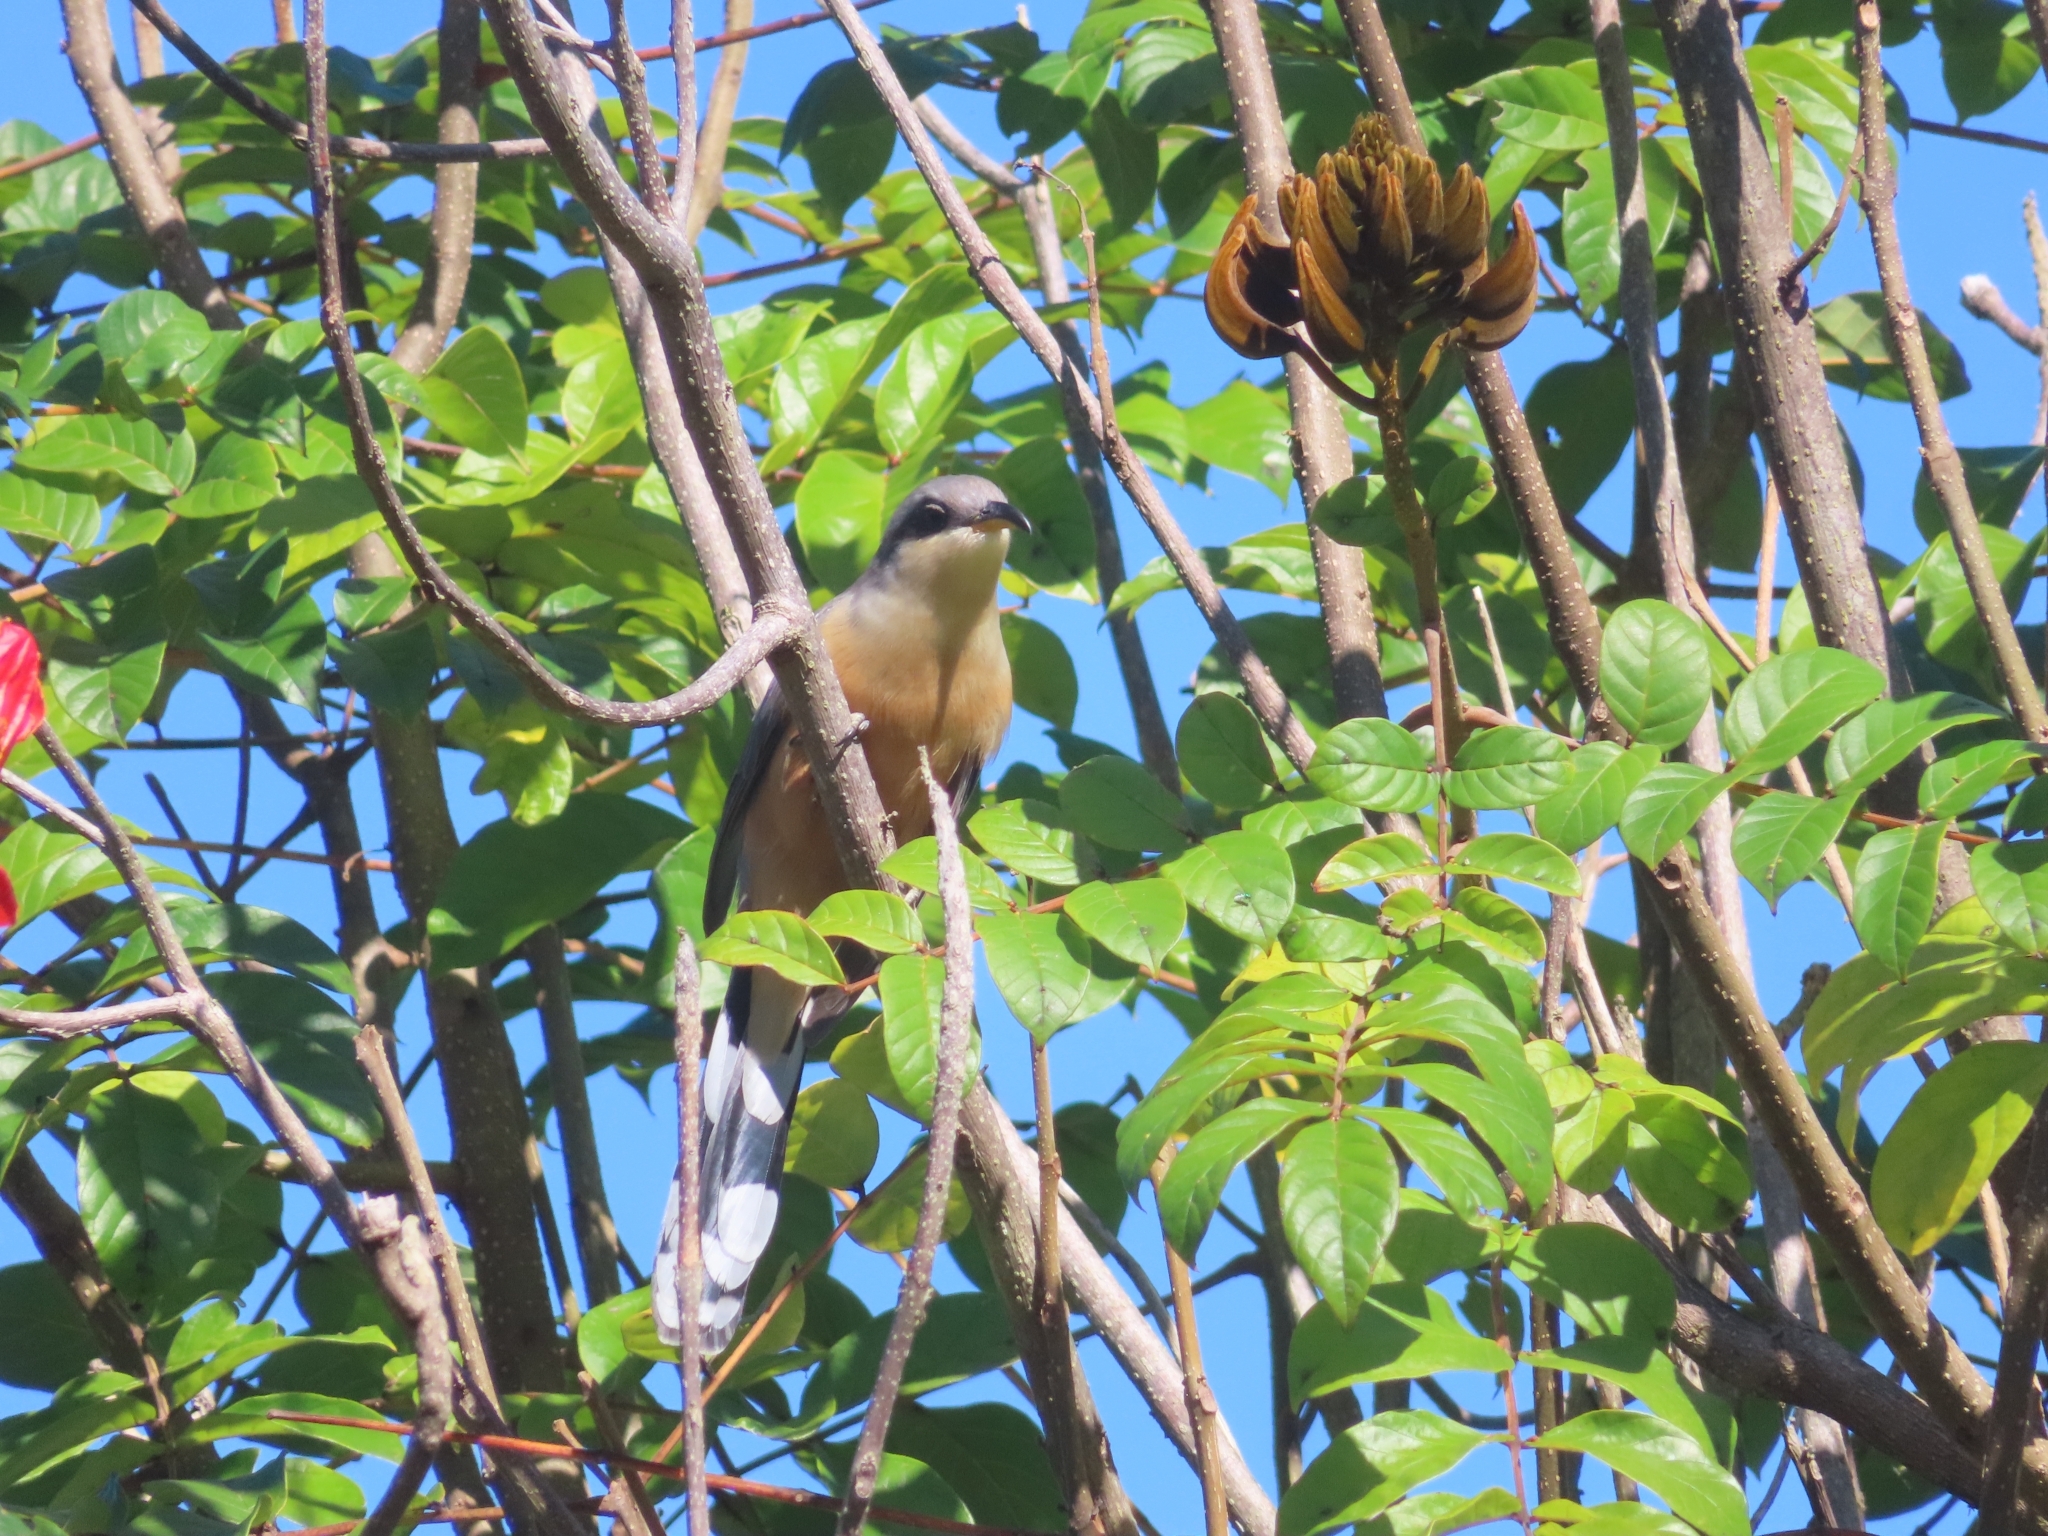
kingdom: Animalia
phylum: Chordata
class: Aves
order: Cuculiformes
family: Cuculidae
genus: Coccyzus
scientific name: Coccyzus minor
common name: Mangrove cuckoo
